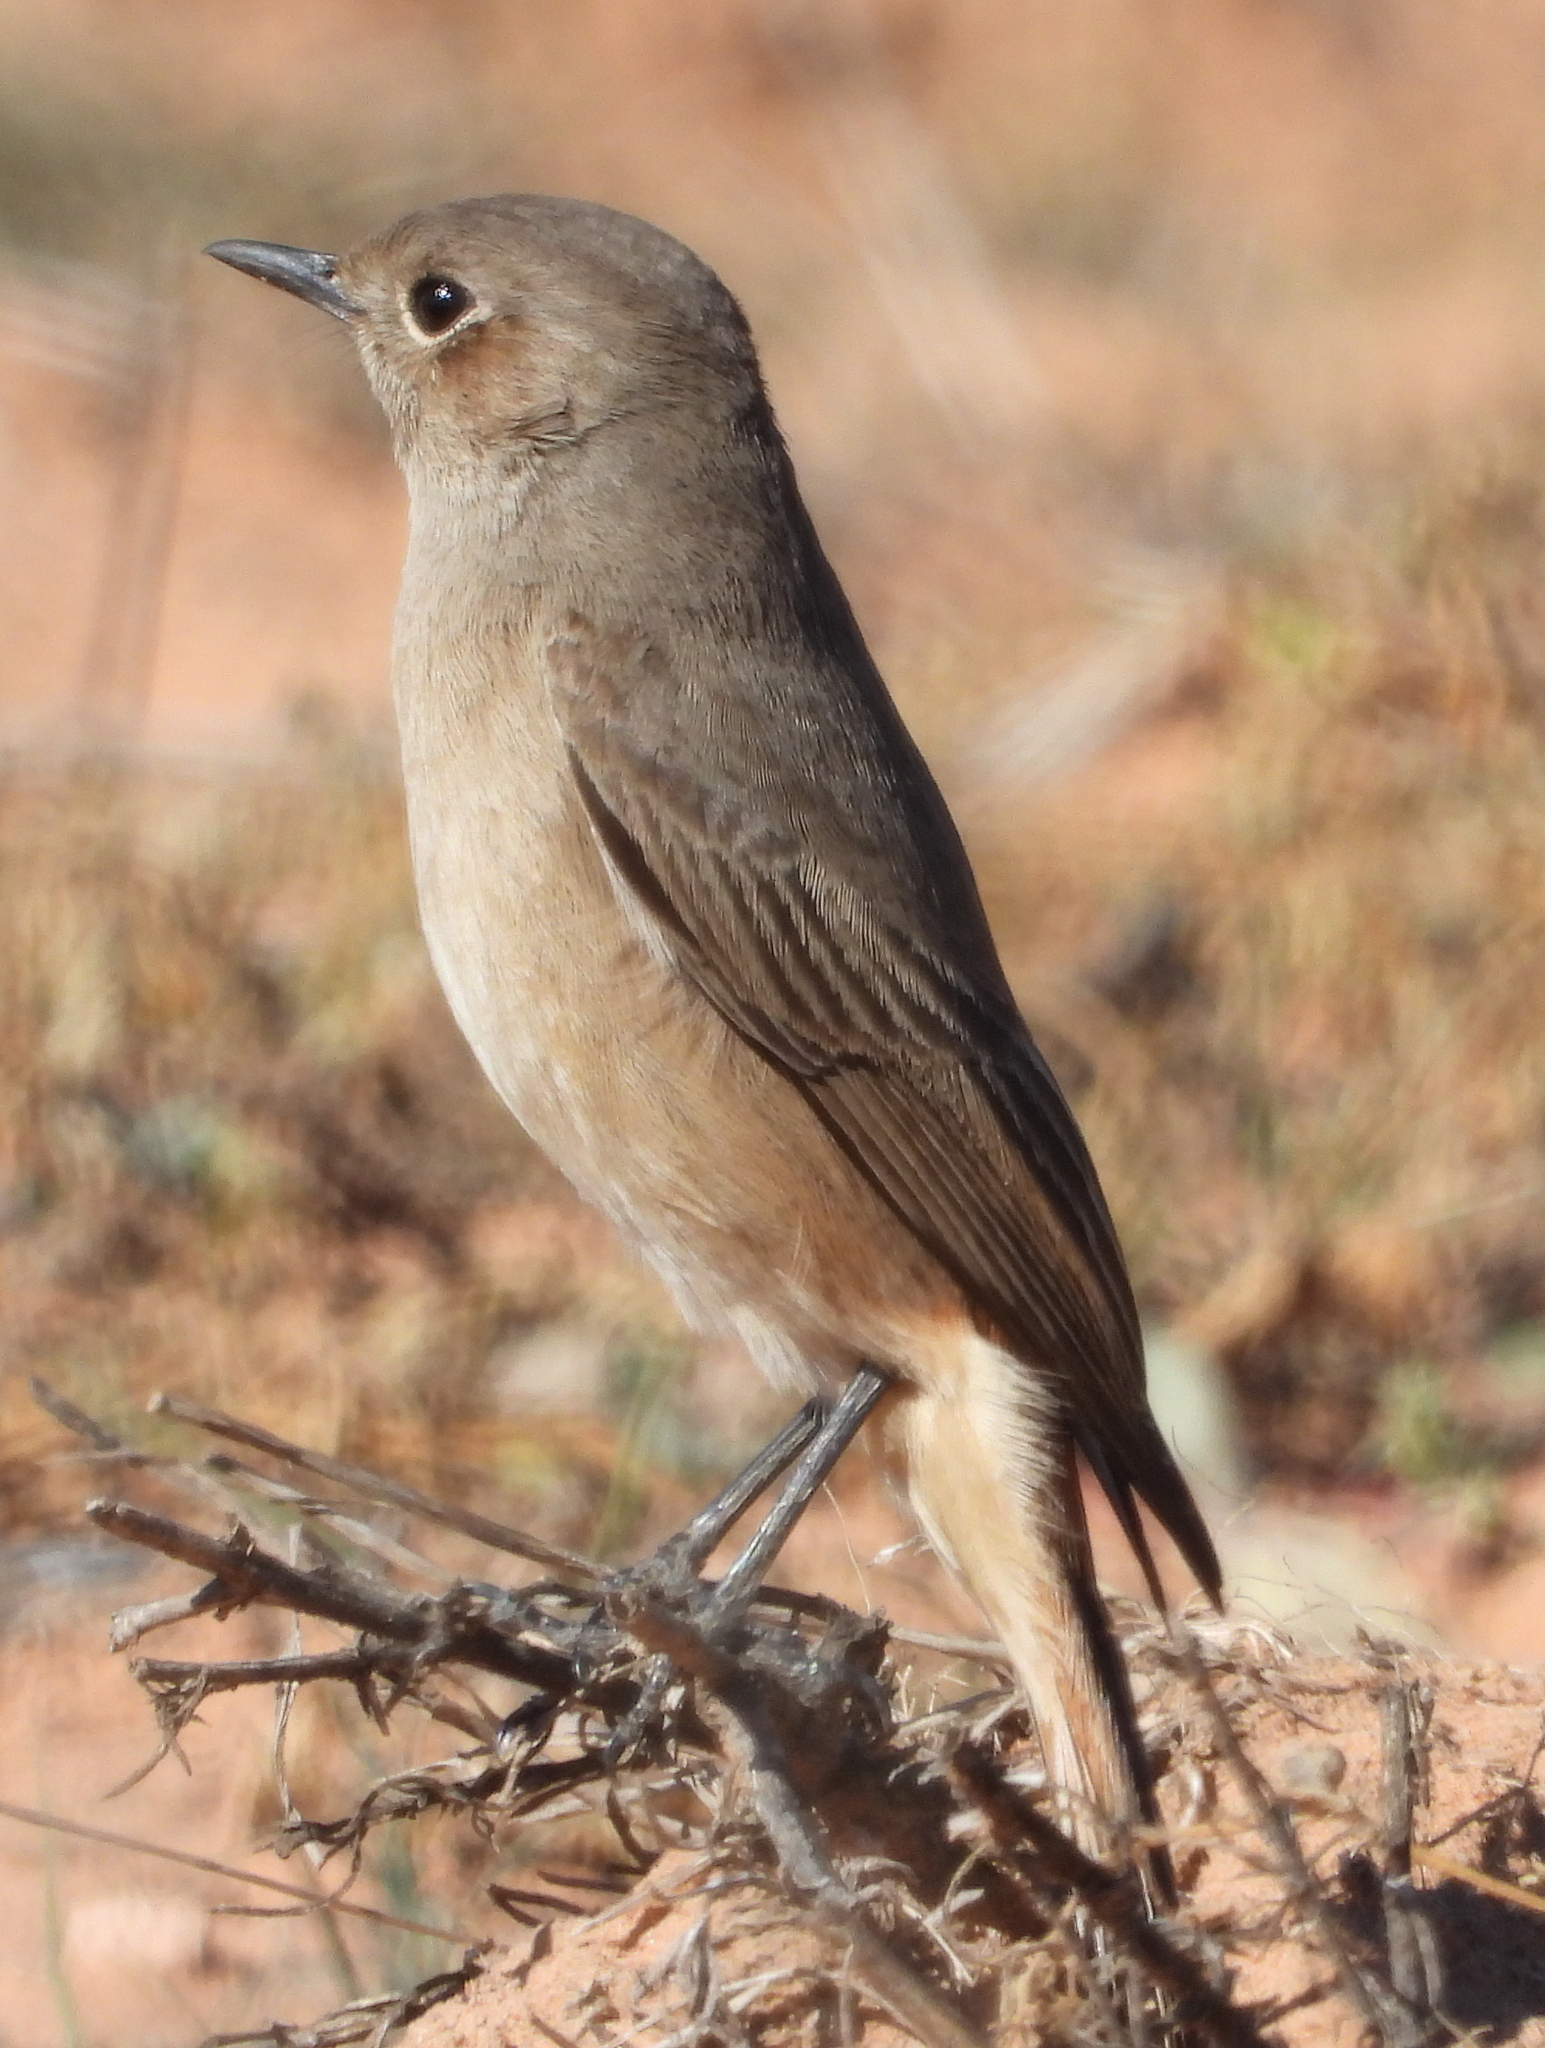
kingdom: Animalia
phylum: Chordata
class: Aves
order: Passeriformes
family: Muscicapidae
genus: Oenanthe
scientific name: Oenanthe familiaris
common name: Familiar chat
